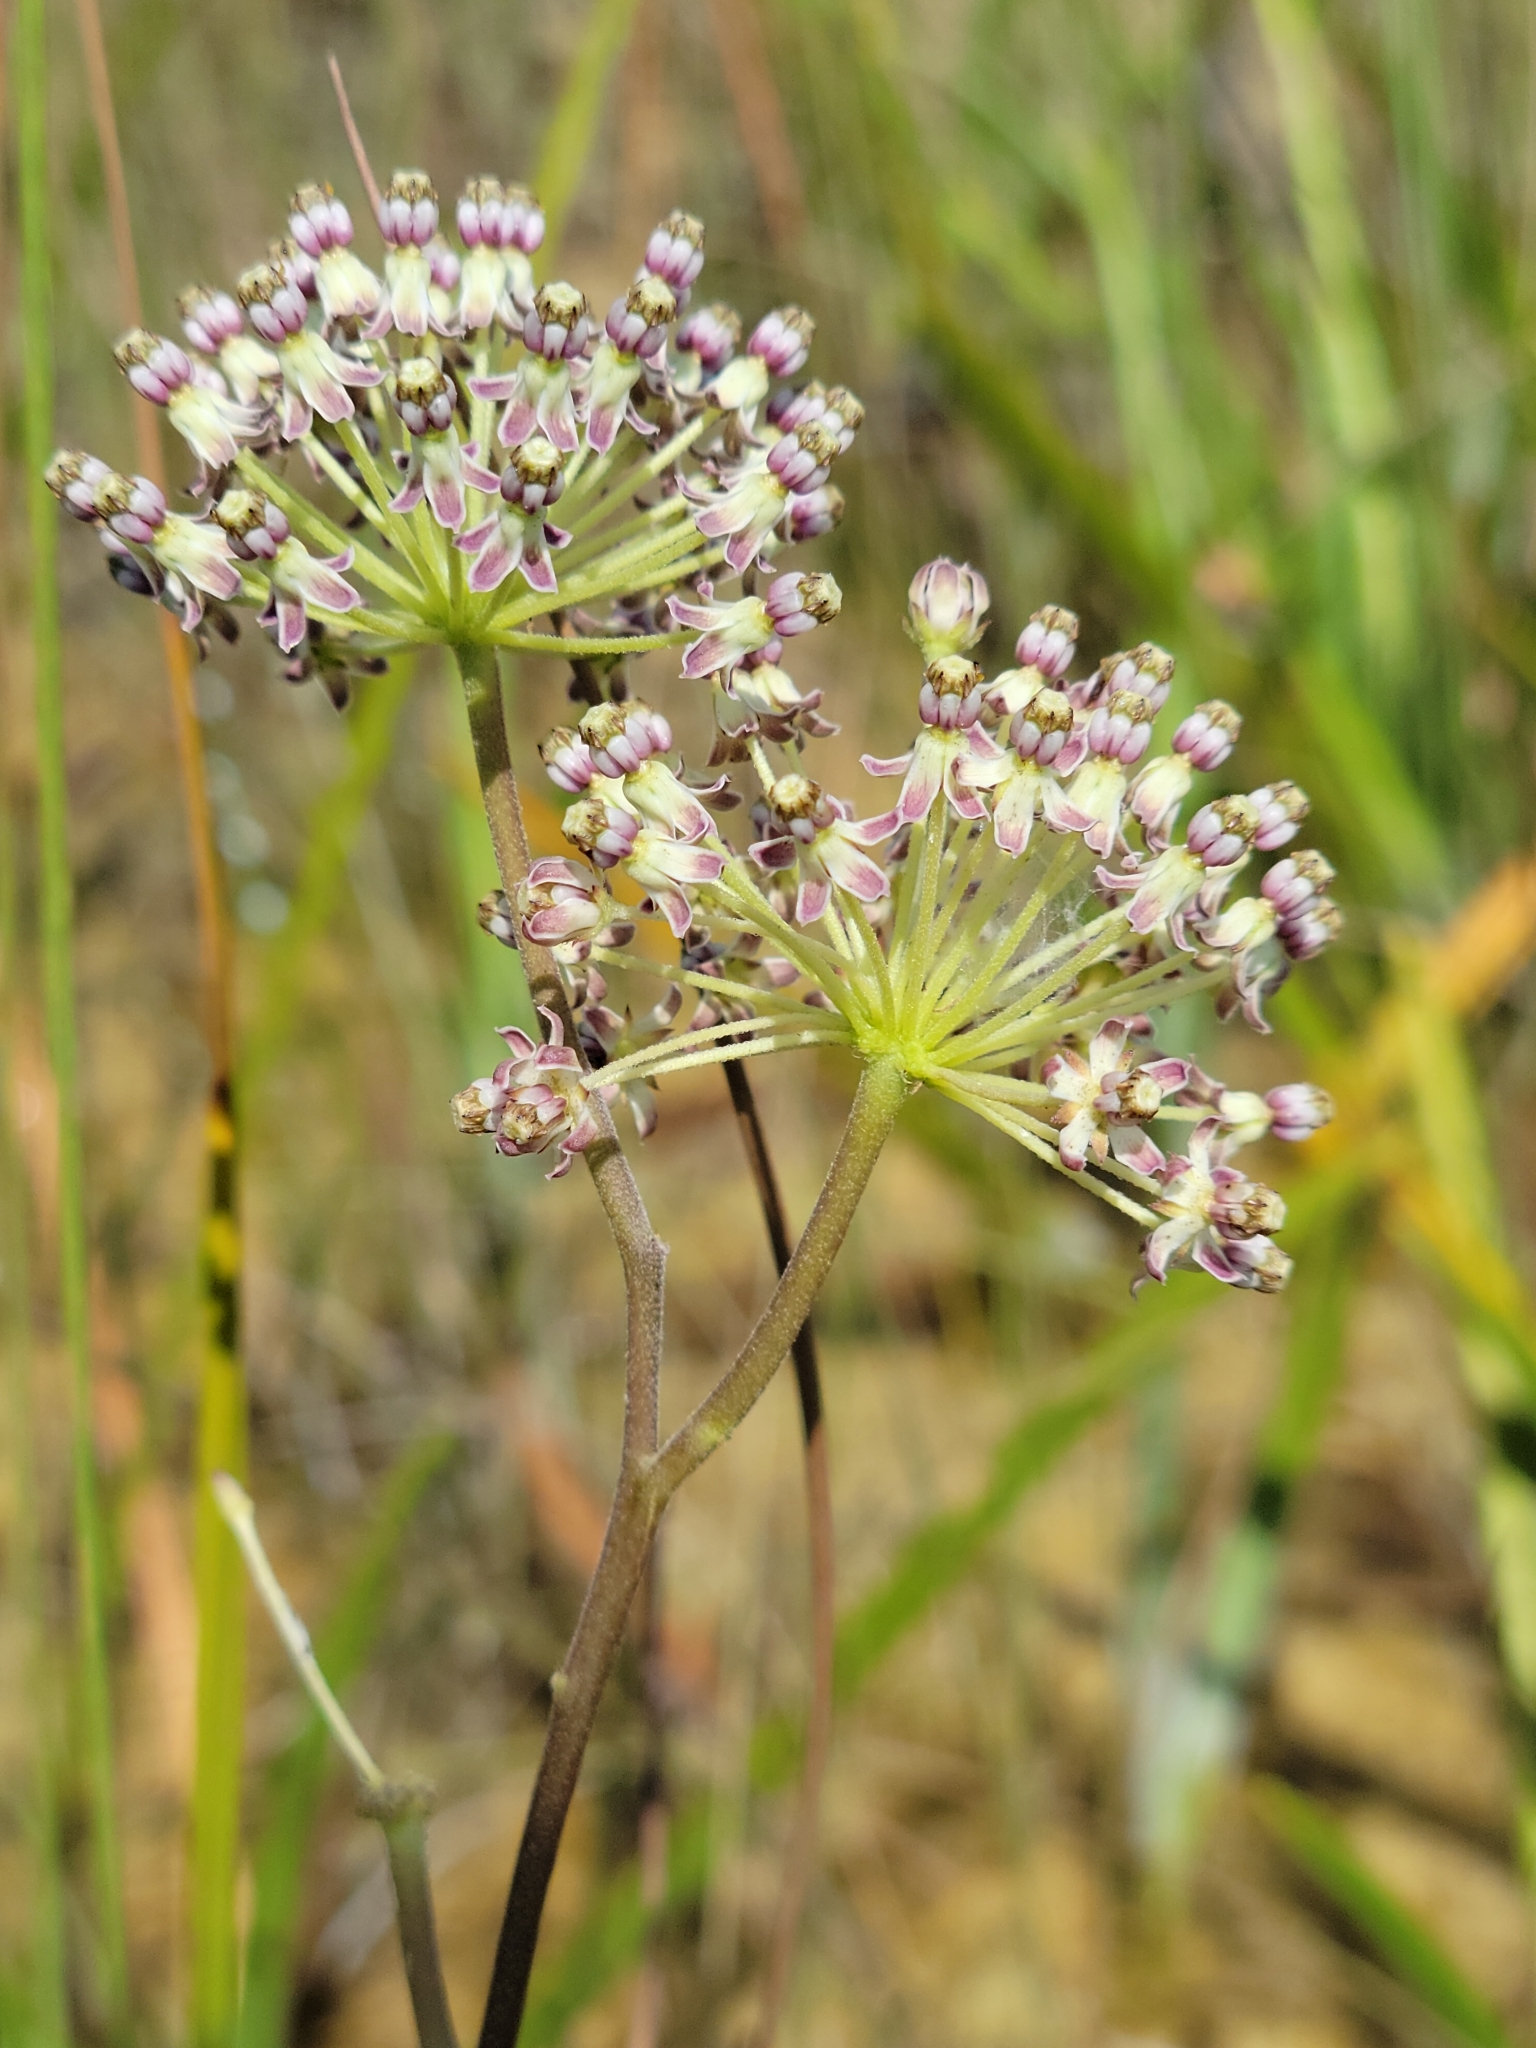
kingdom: Plantae
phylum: Tracheophyta
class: Magnoliopsida
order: Gentianales
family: Apocynaceae
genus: Asclepias
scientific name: Asclepias longifolia
